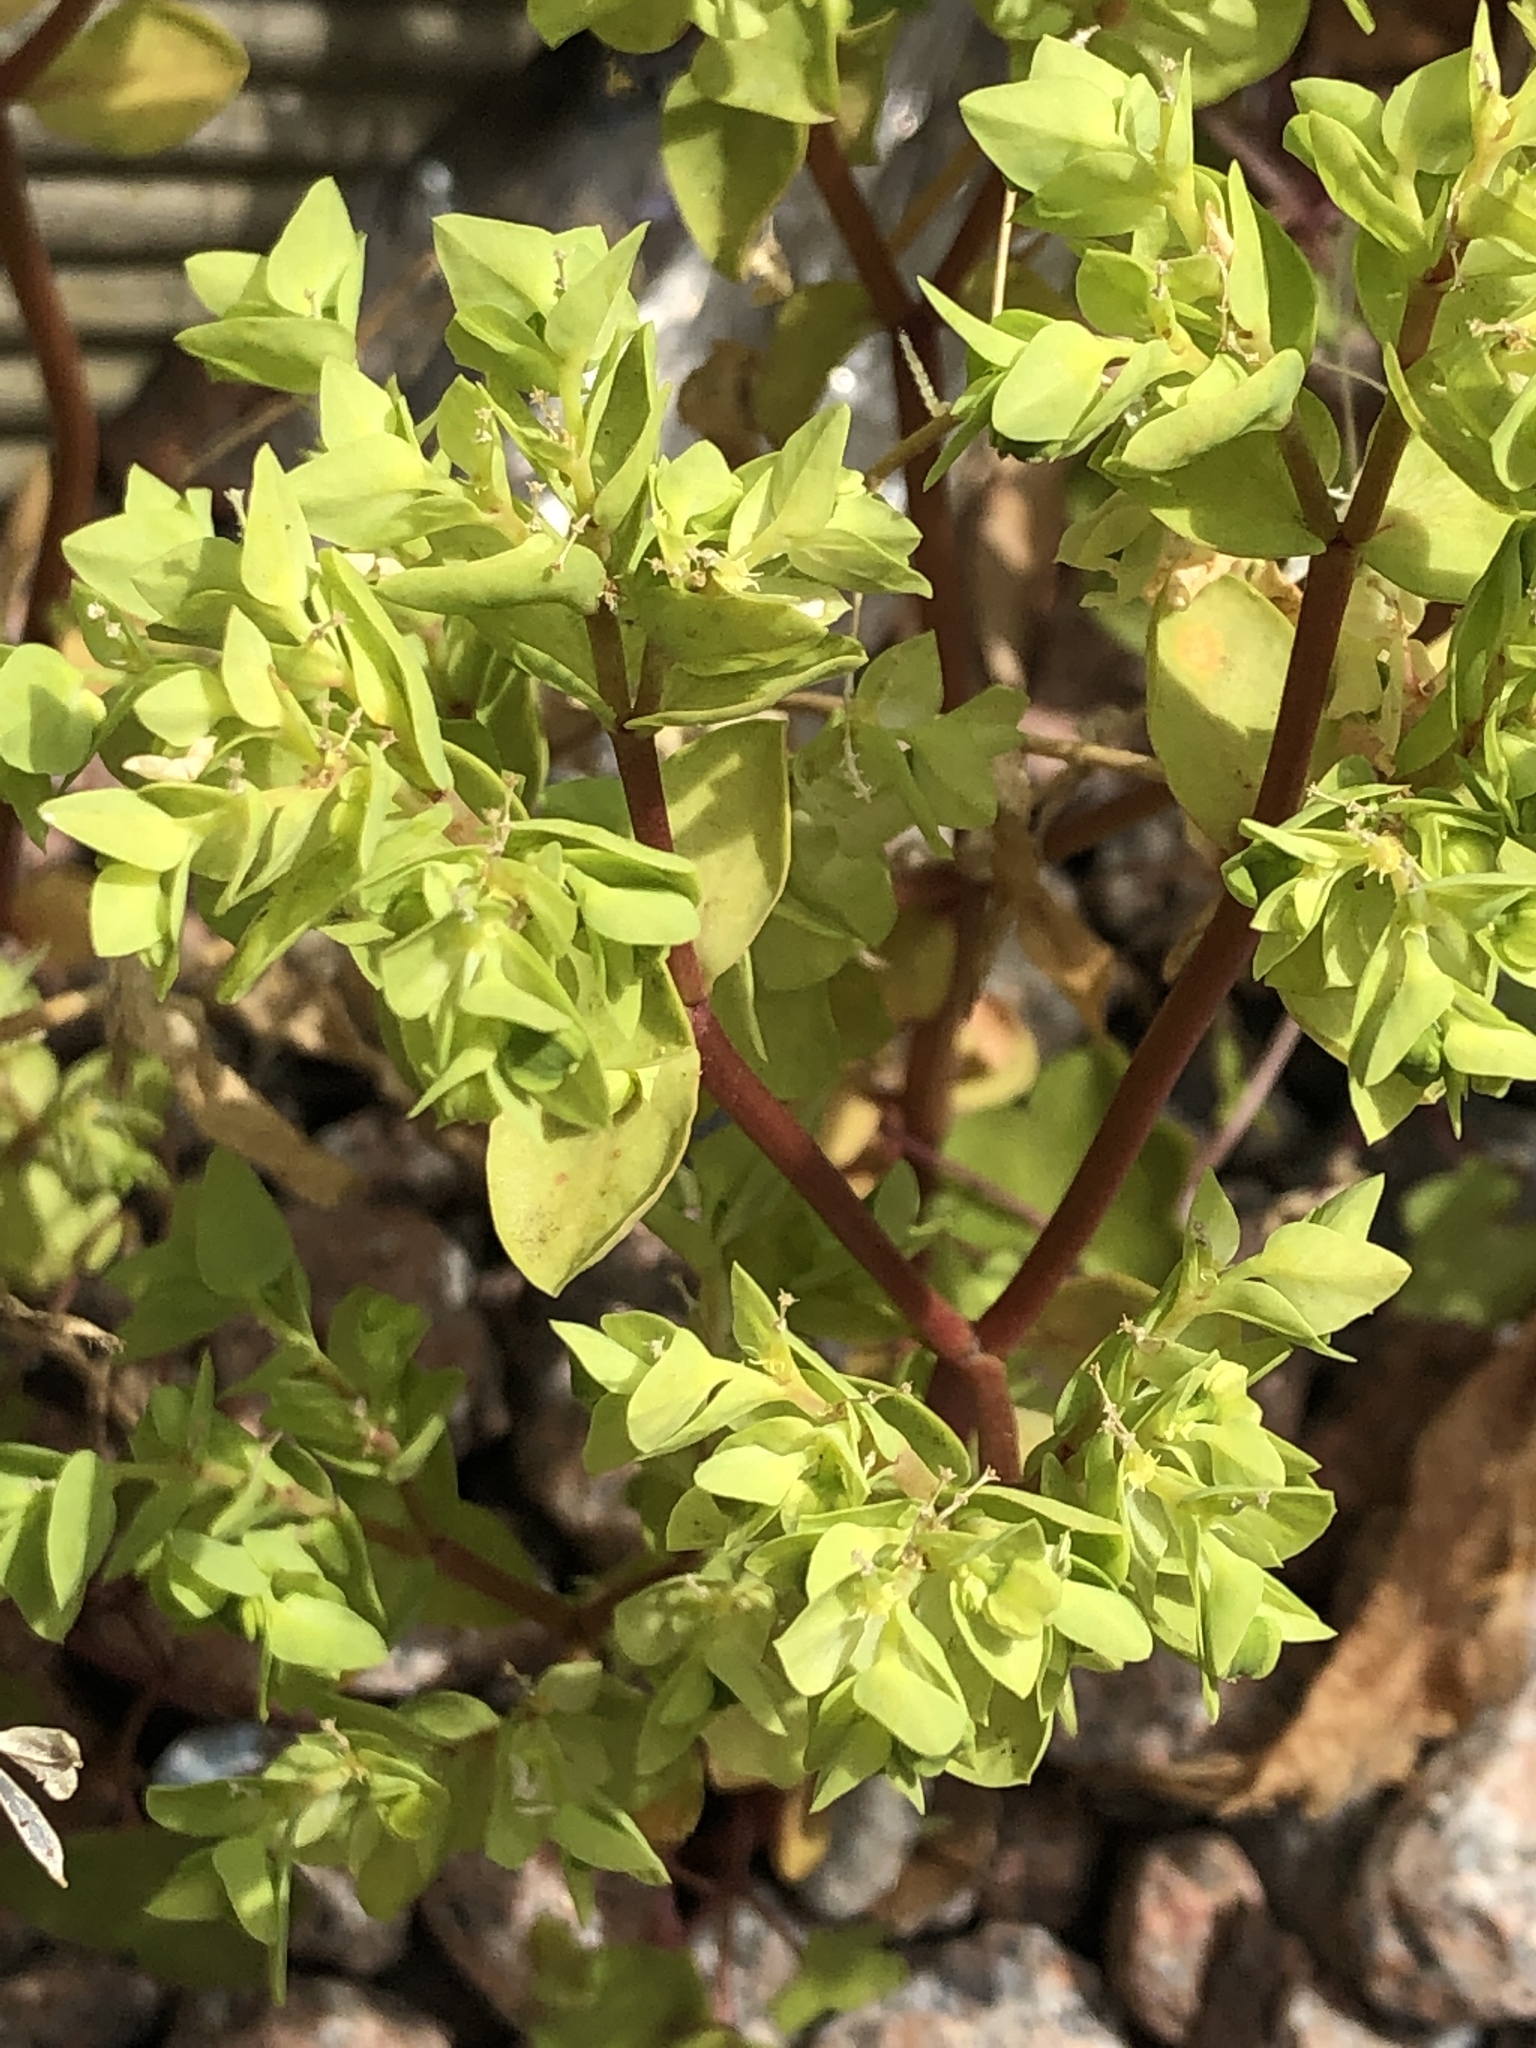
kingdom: Plantae
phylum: Tracheophyta
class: Magnoliopsida
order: Malpighiales
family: Euphorbiaceae
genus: Euphorbia
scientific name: Euphorbia peplus
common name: Petty spurge
